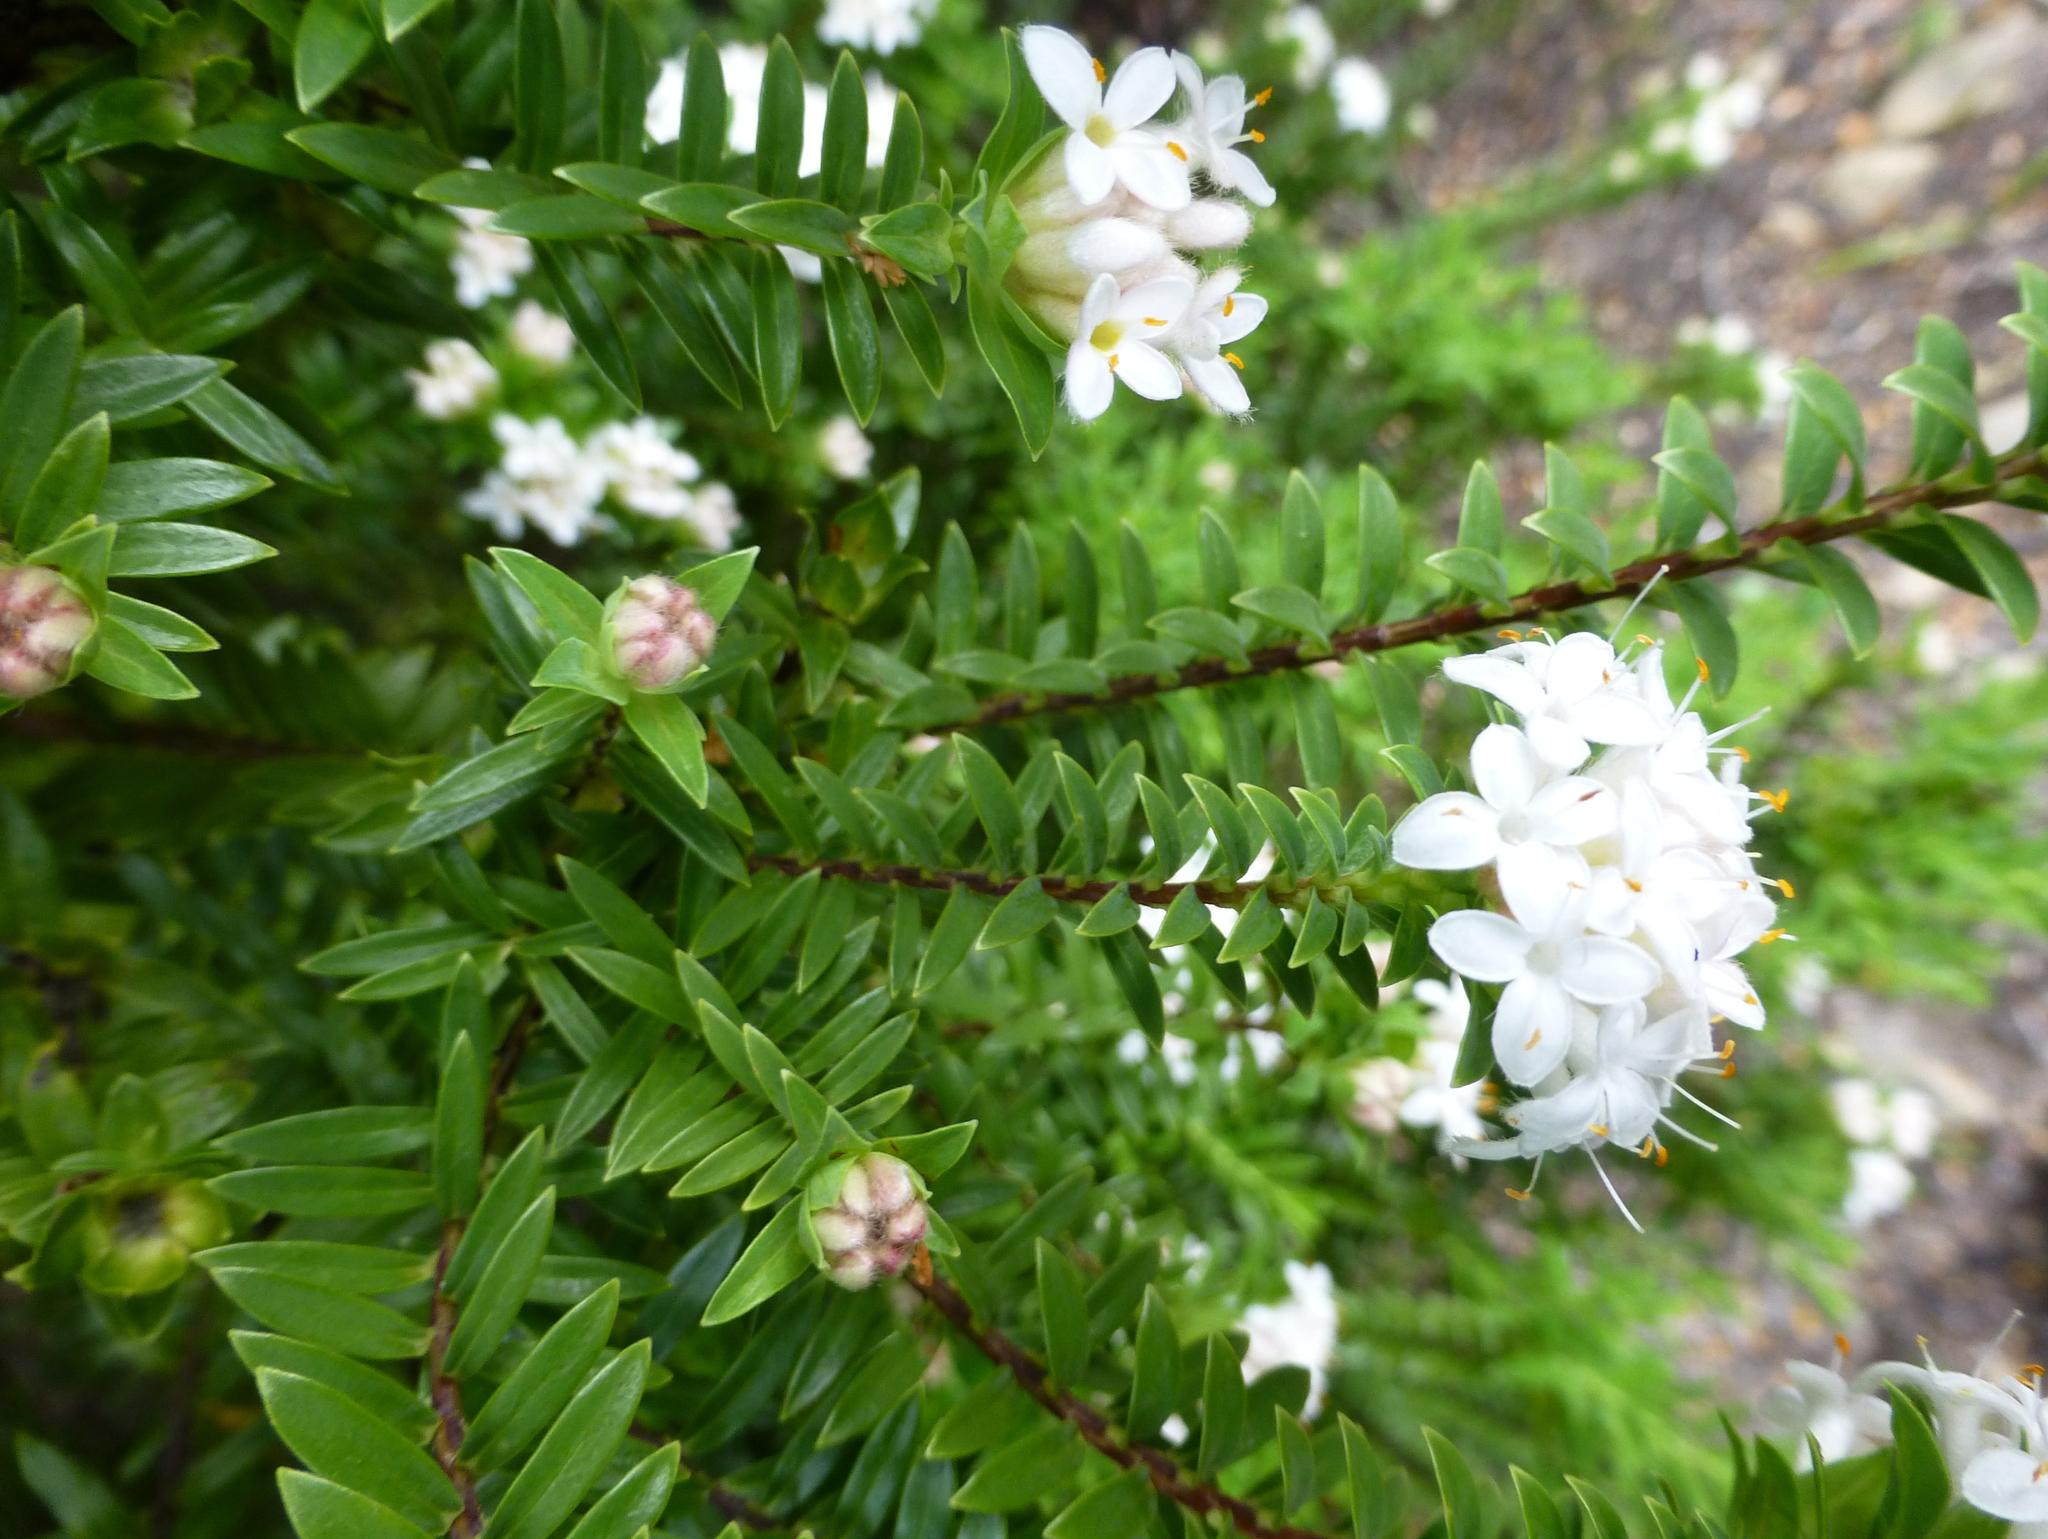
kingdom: Plantae
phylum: Tracheophyta
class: Magnoliopsida
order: Malvales
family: Thymelaeaceae
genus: Pimelea
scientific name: Pimelea gnidia
